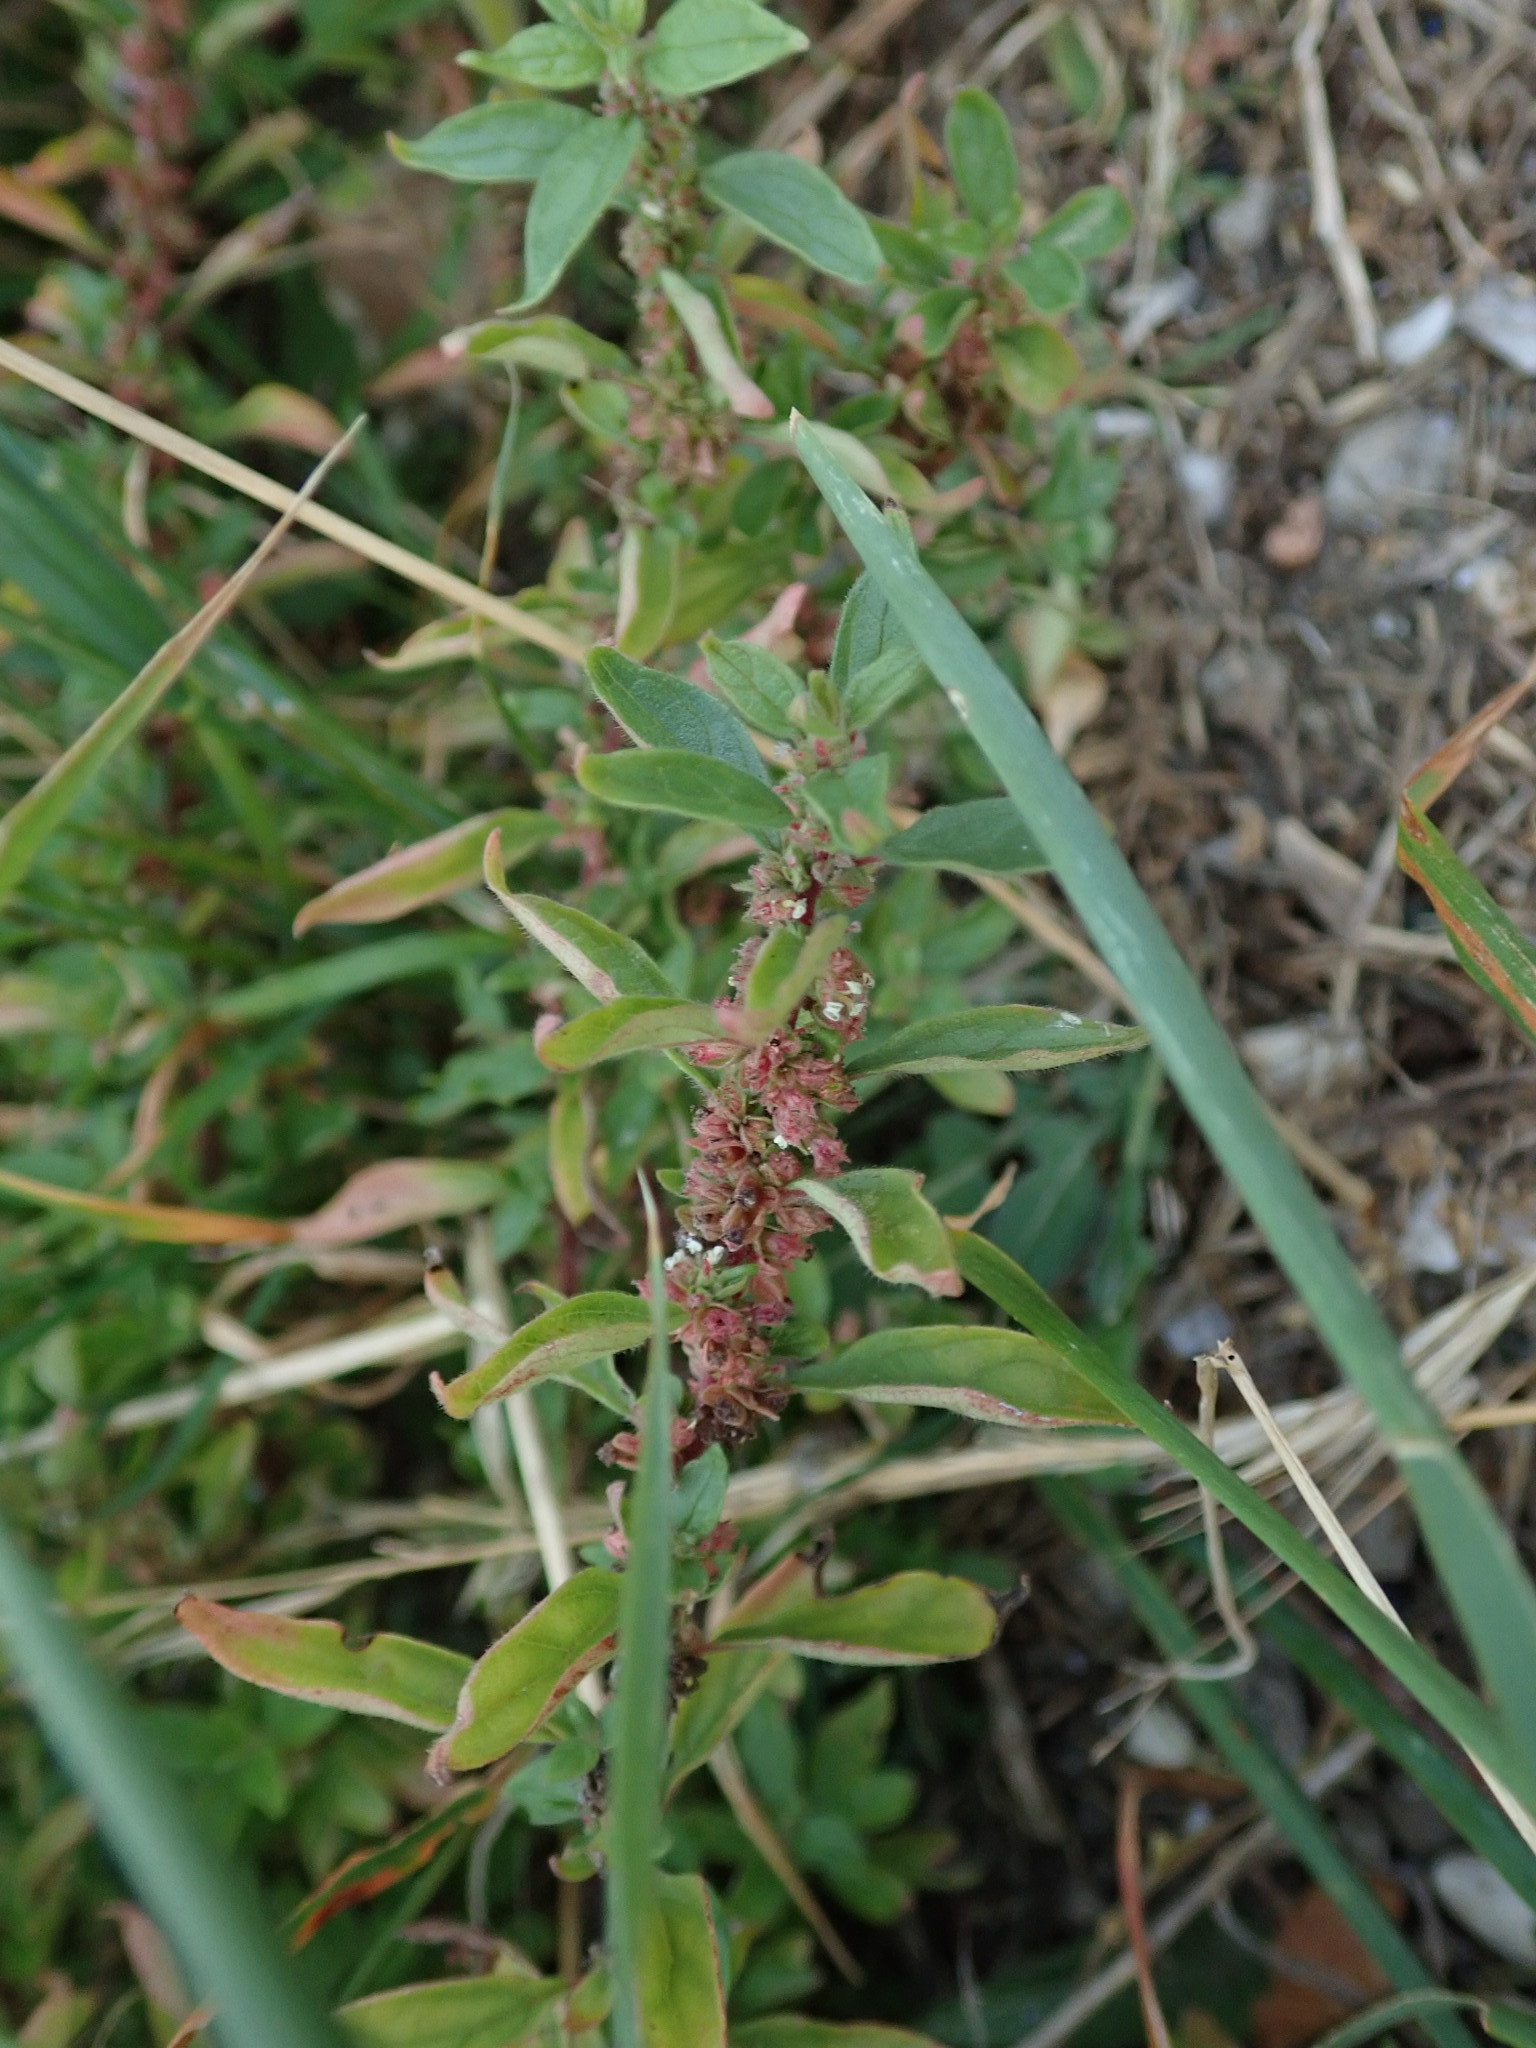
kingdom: Plantae
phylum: Tracheophyta
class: Magnoliopsida
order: Rosales
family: Urticaceae
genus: Parietaria
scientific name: Parietaria judaica
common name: Pellitory-of-the-wall
